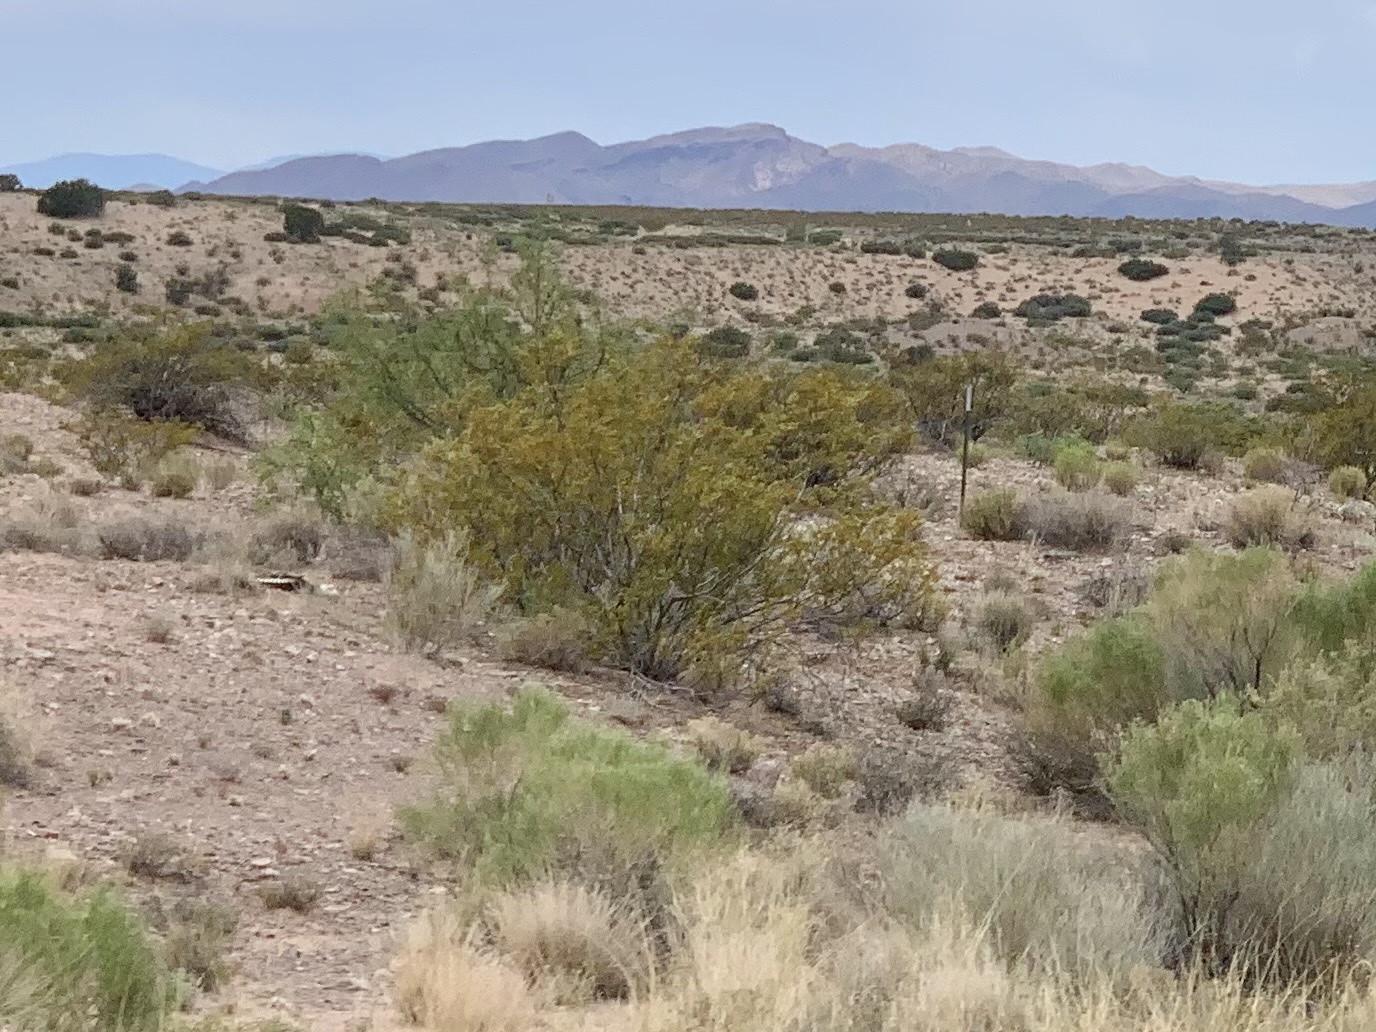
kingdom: Plantae
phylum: Tracheophyta
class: Magnoliopsida
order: Zygophyllales
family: Zygophyllaceae
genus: Larrea
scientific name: Larrea tridentata
